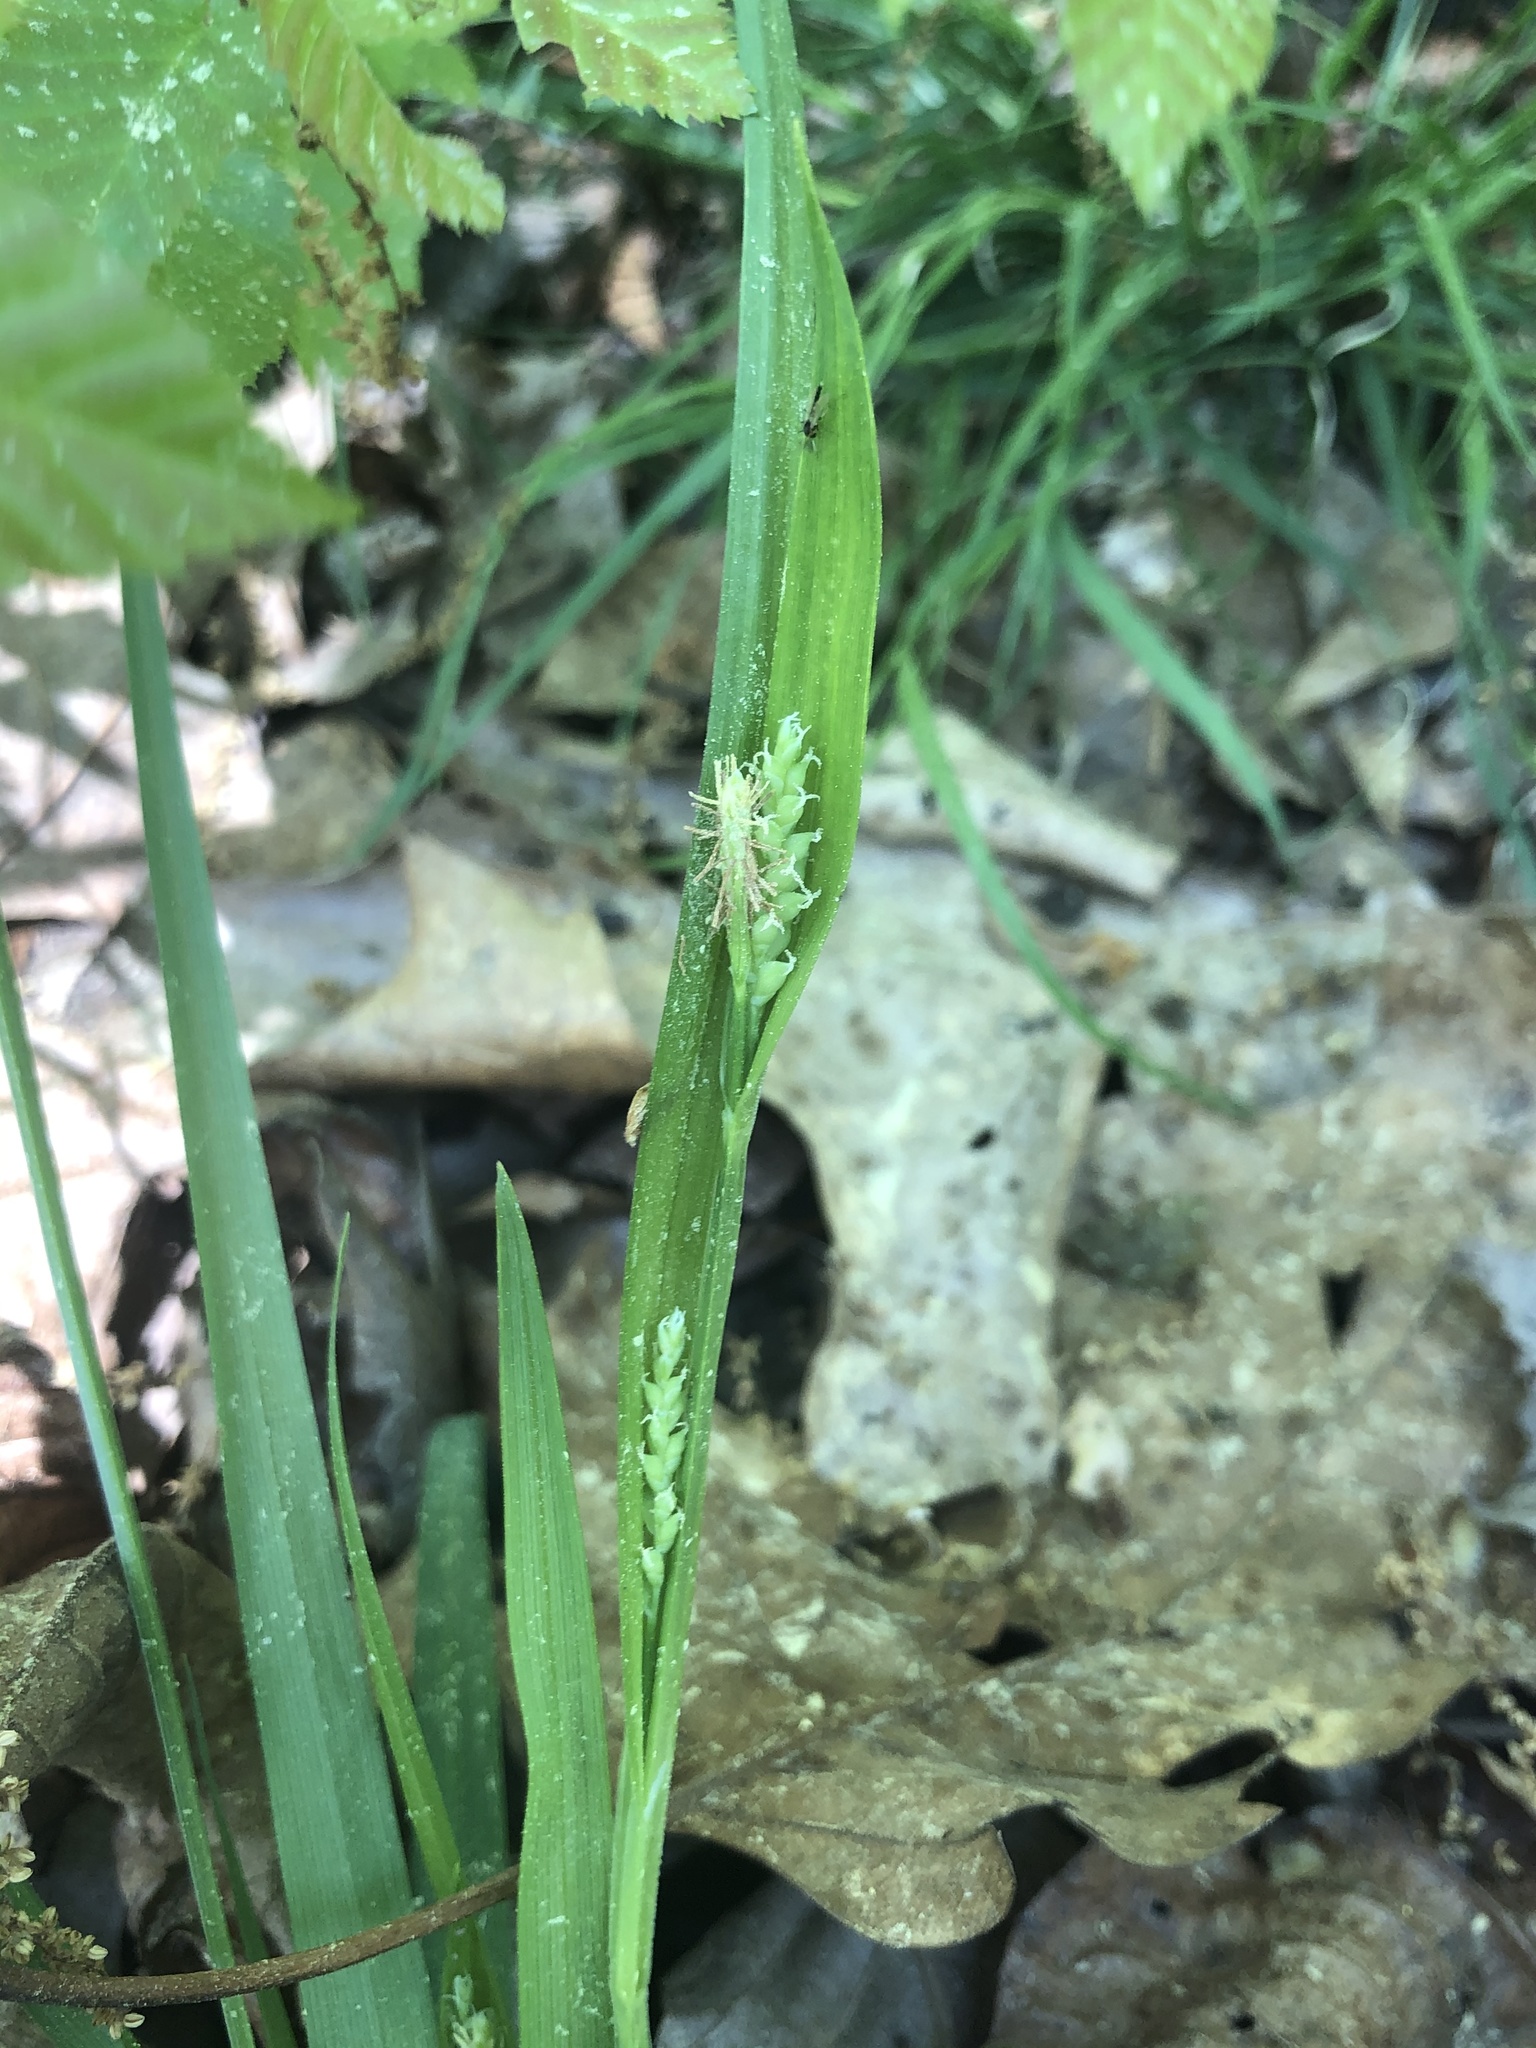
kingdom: Plantae
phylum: Tracheophyta
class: Liliopsida
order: Poales
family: Cyperaceae
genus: Carex
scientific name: Carex kraliana
